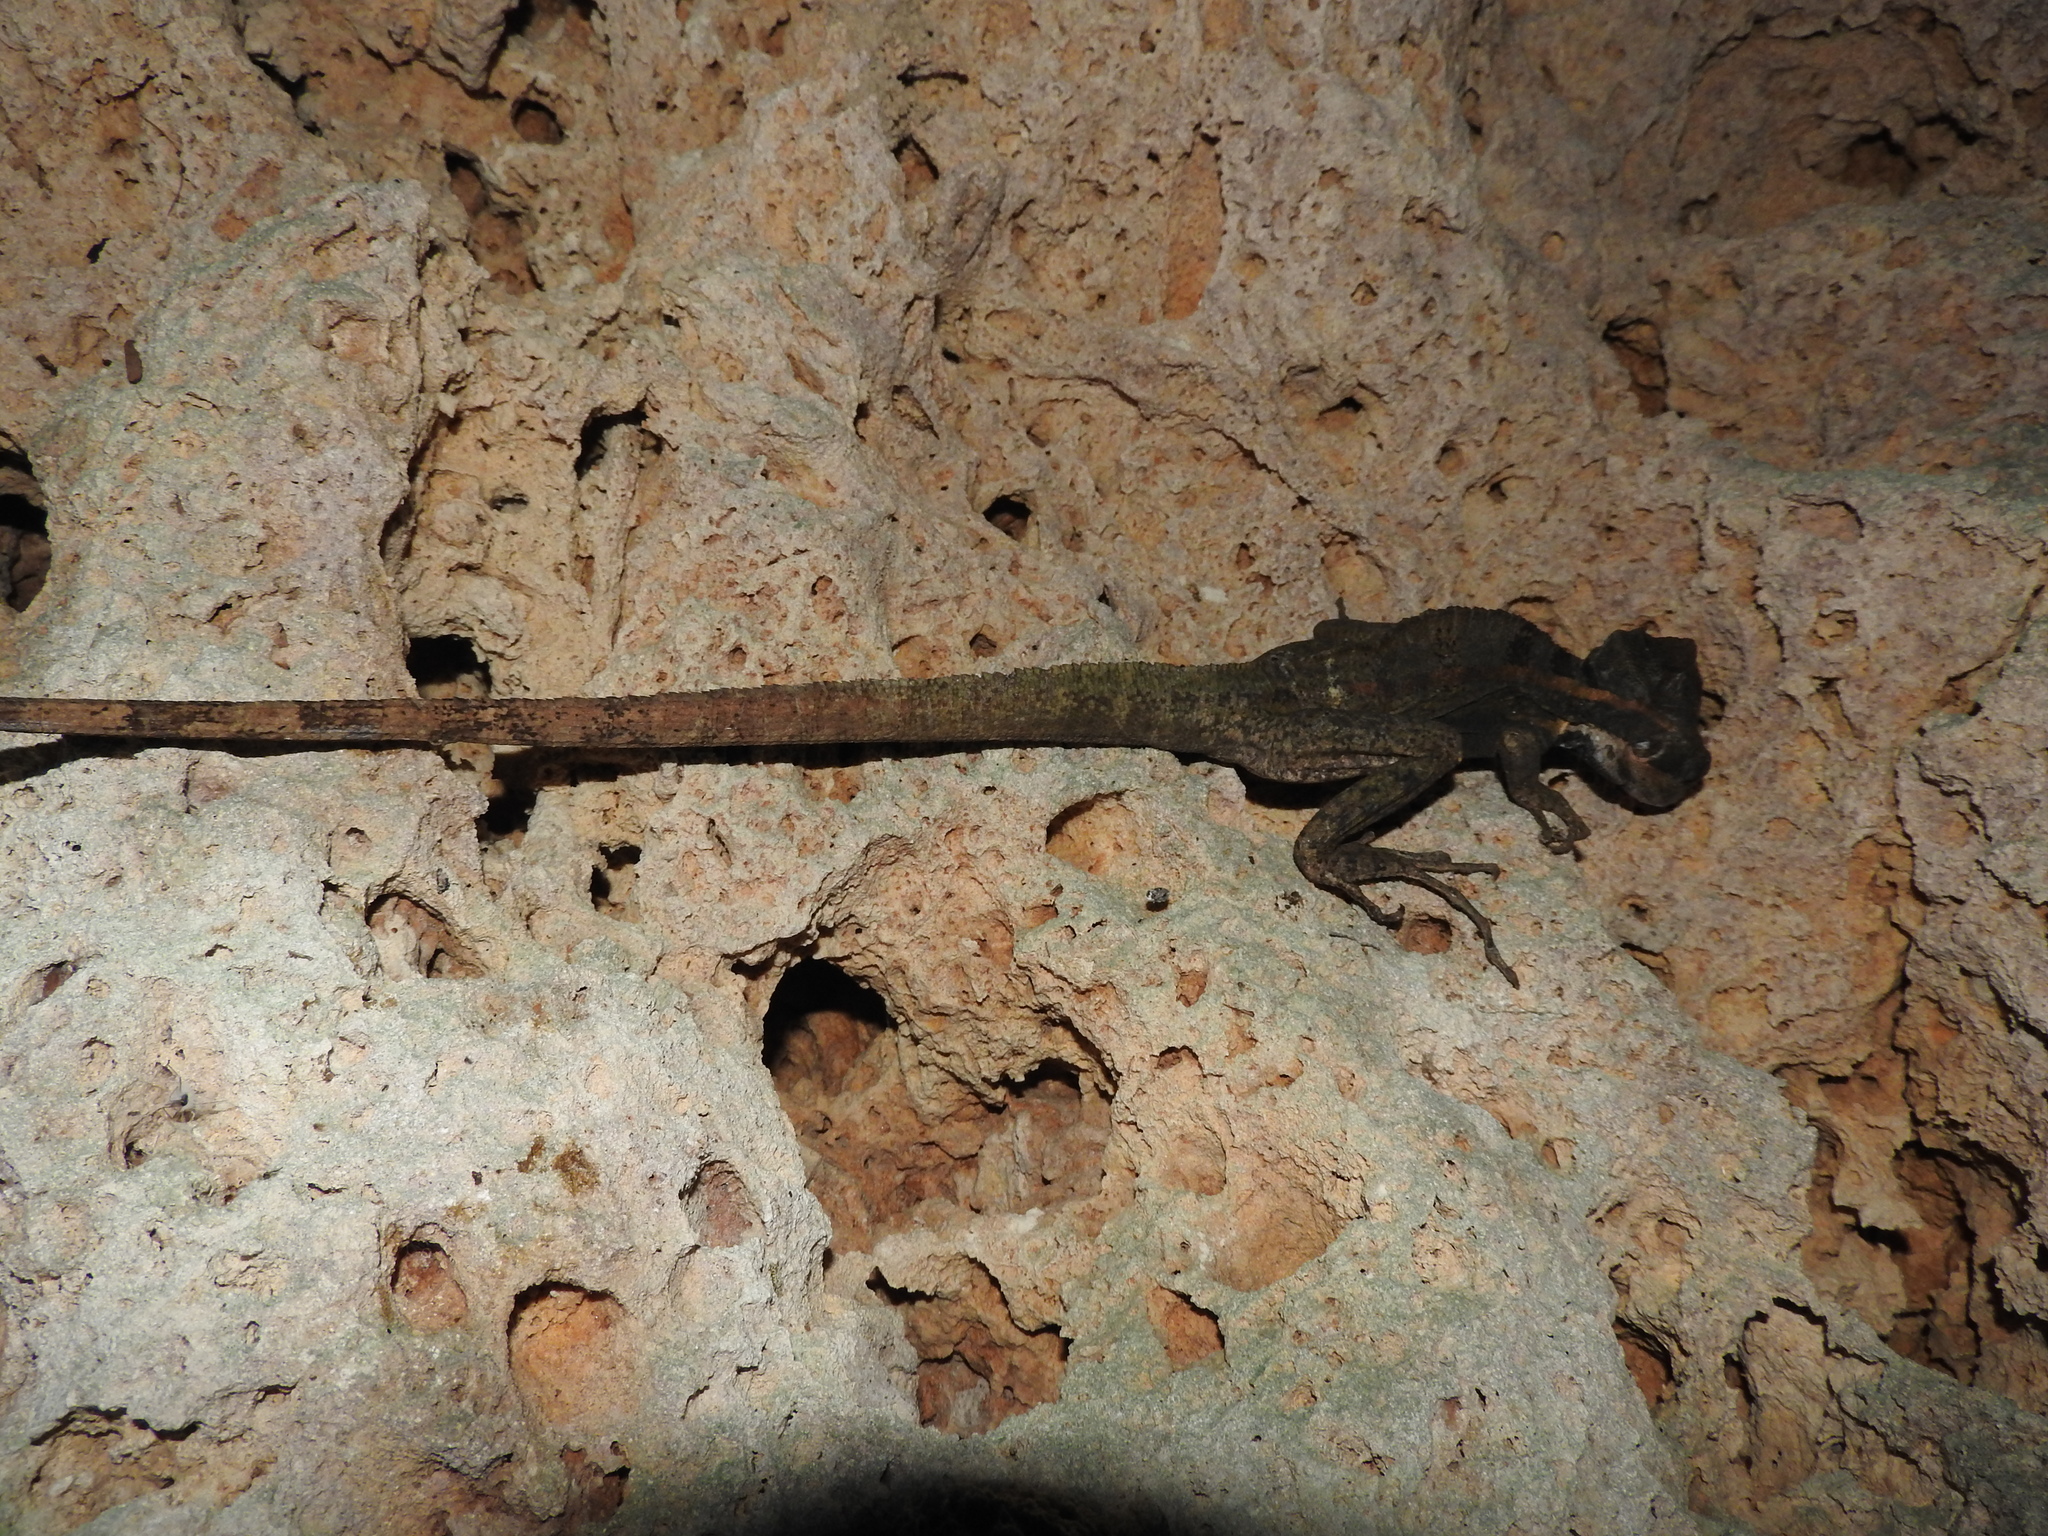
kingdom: Animalia
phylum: Chordata
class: Squamata
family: Corytophanidae
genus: Basiliscus
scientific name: Basiliscus vittatus
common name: Brown basilisk
